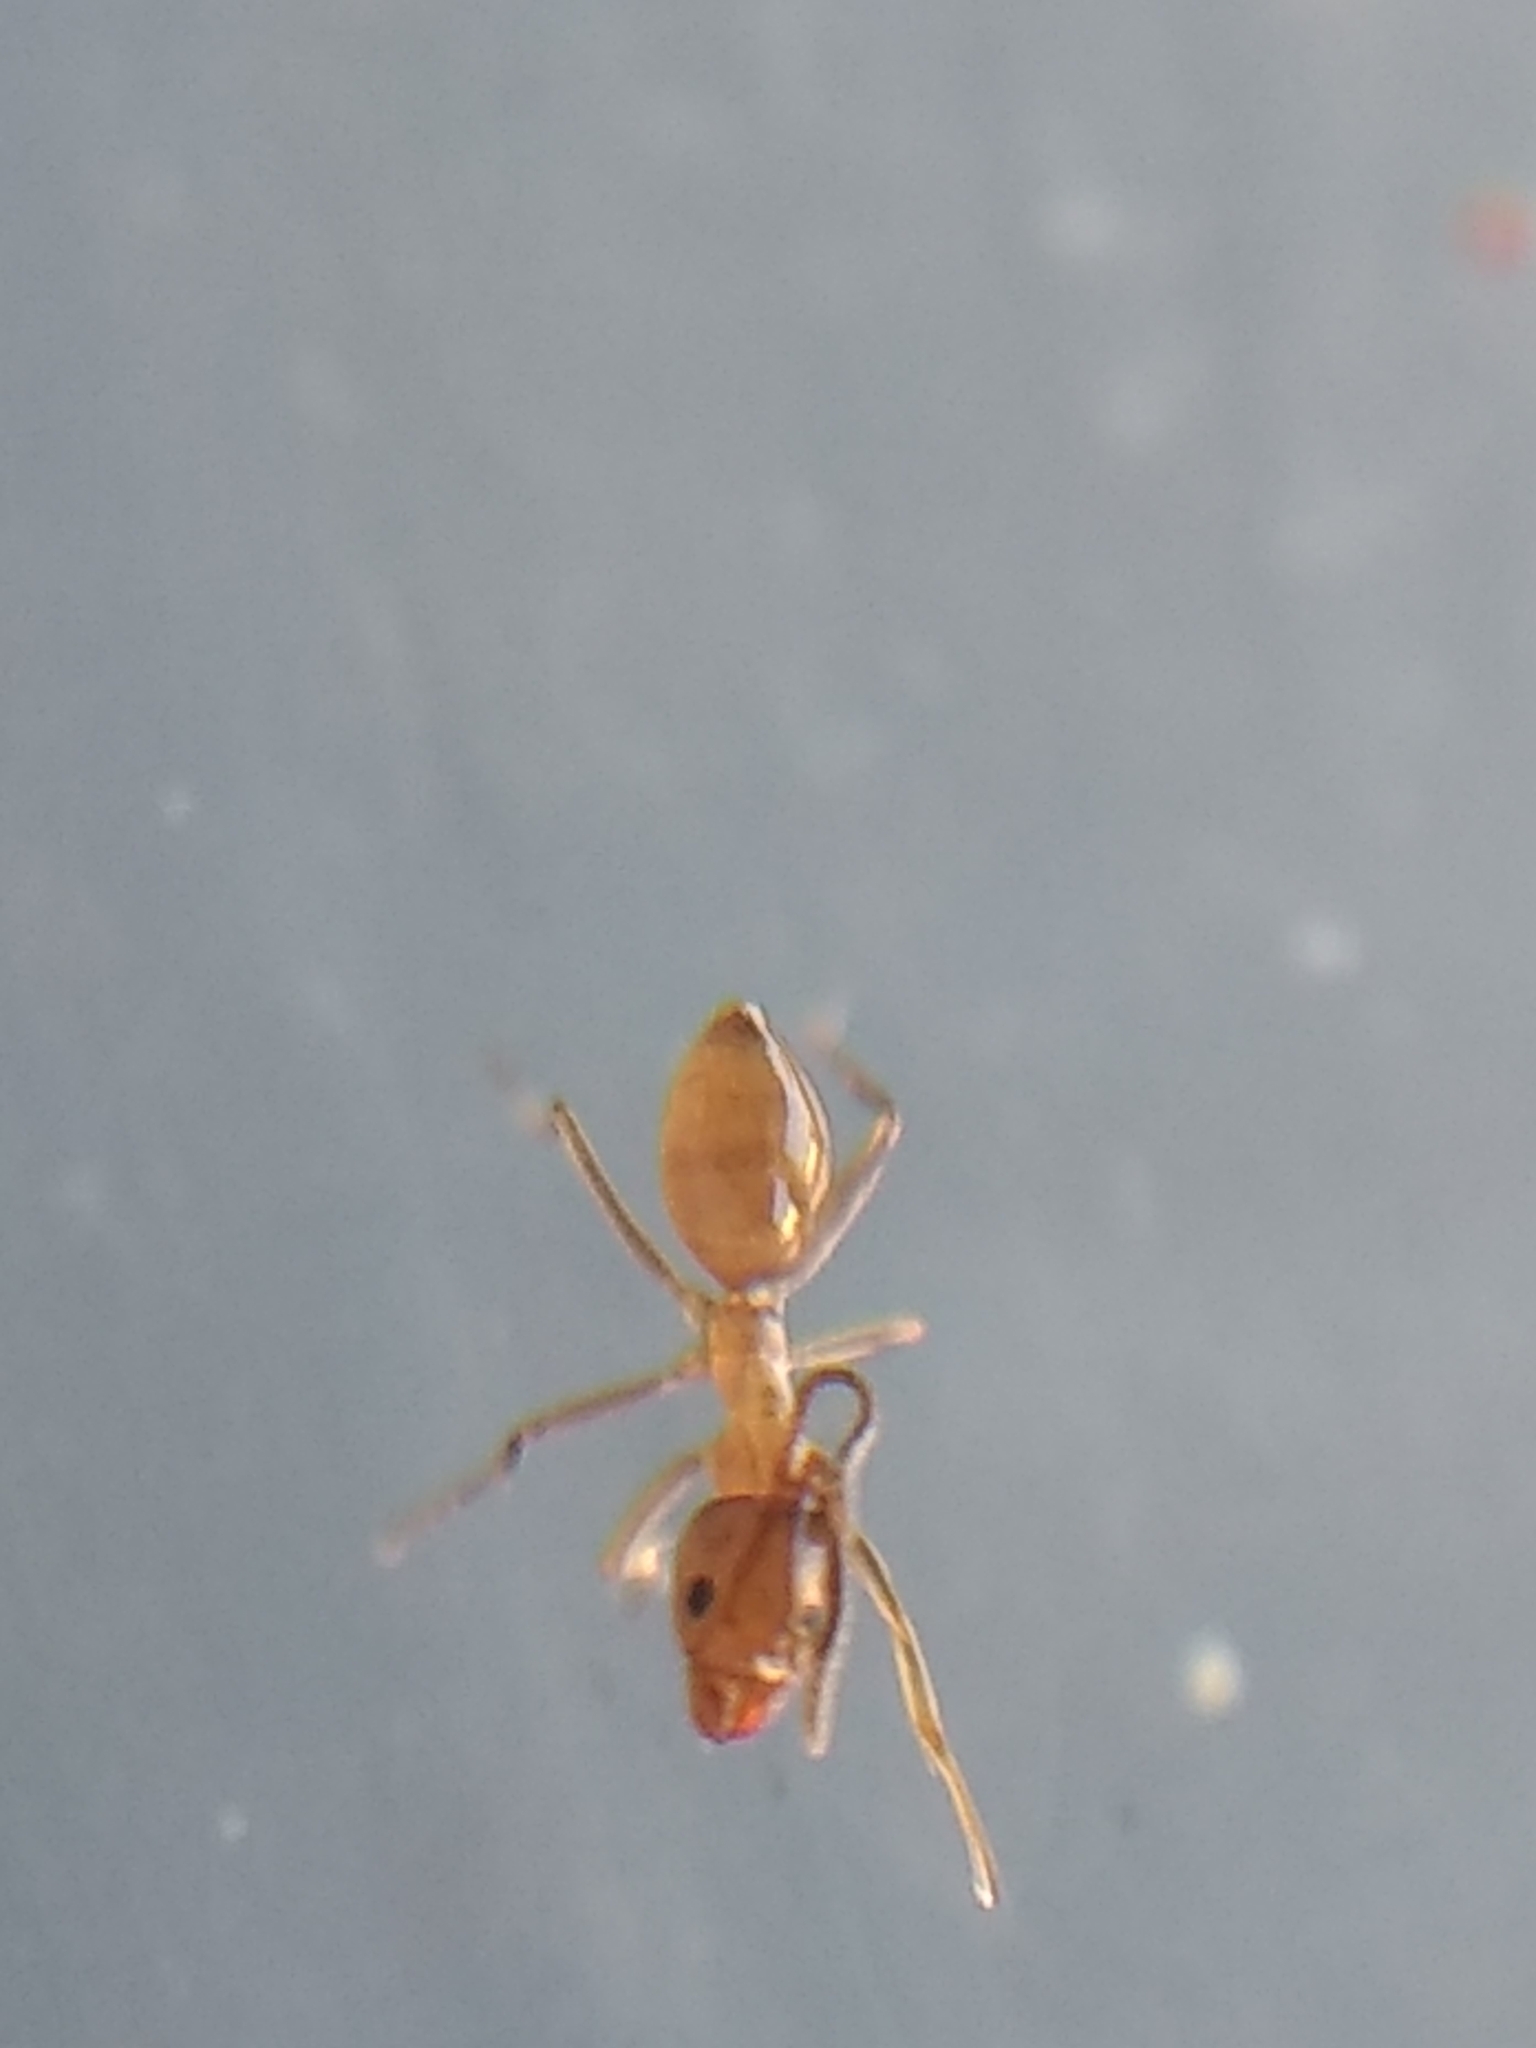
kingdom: Animalia
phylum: Arthropoda
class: Insecta
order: Hymenoptera
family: Formicidae
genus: Linepithema
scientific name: Linepithema humile
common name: Argentine ant
